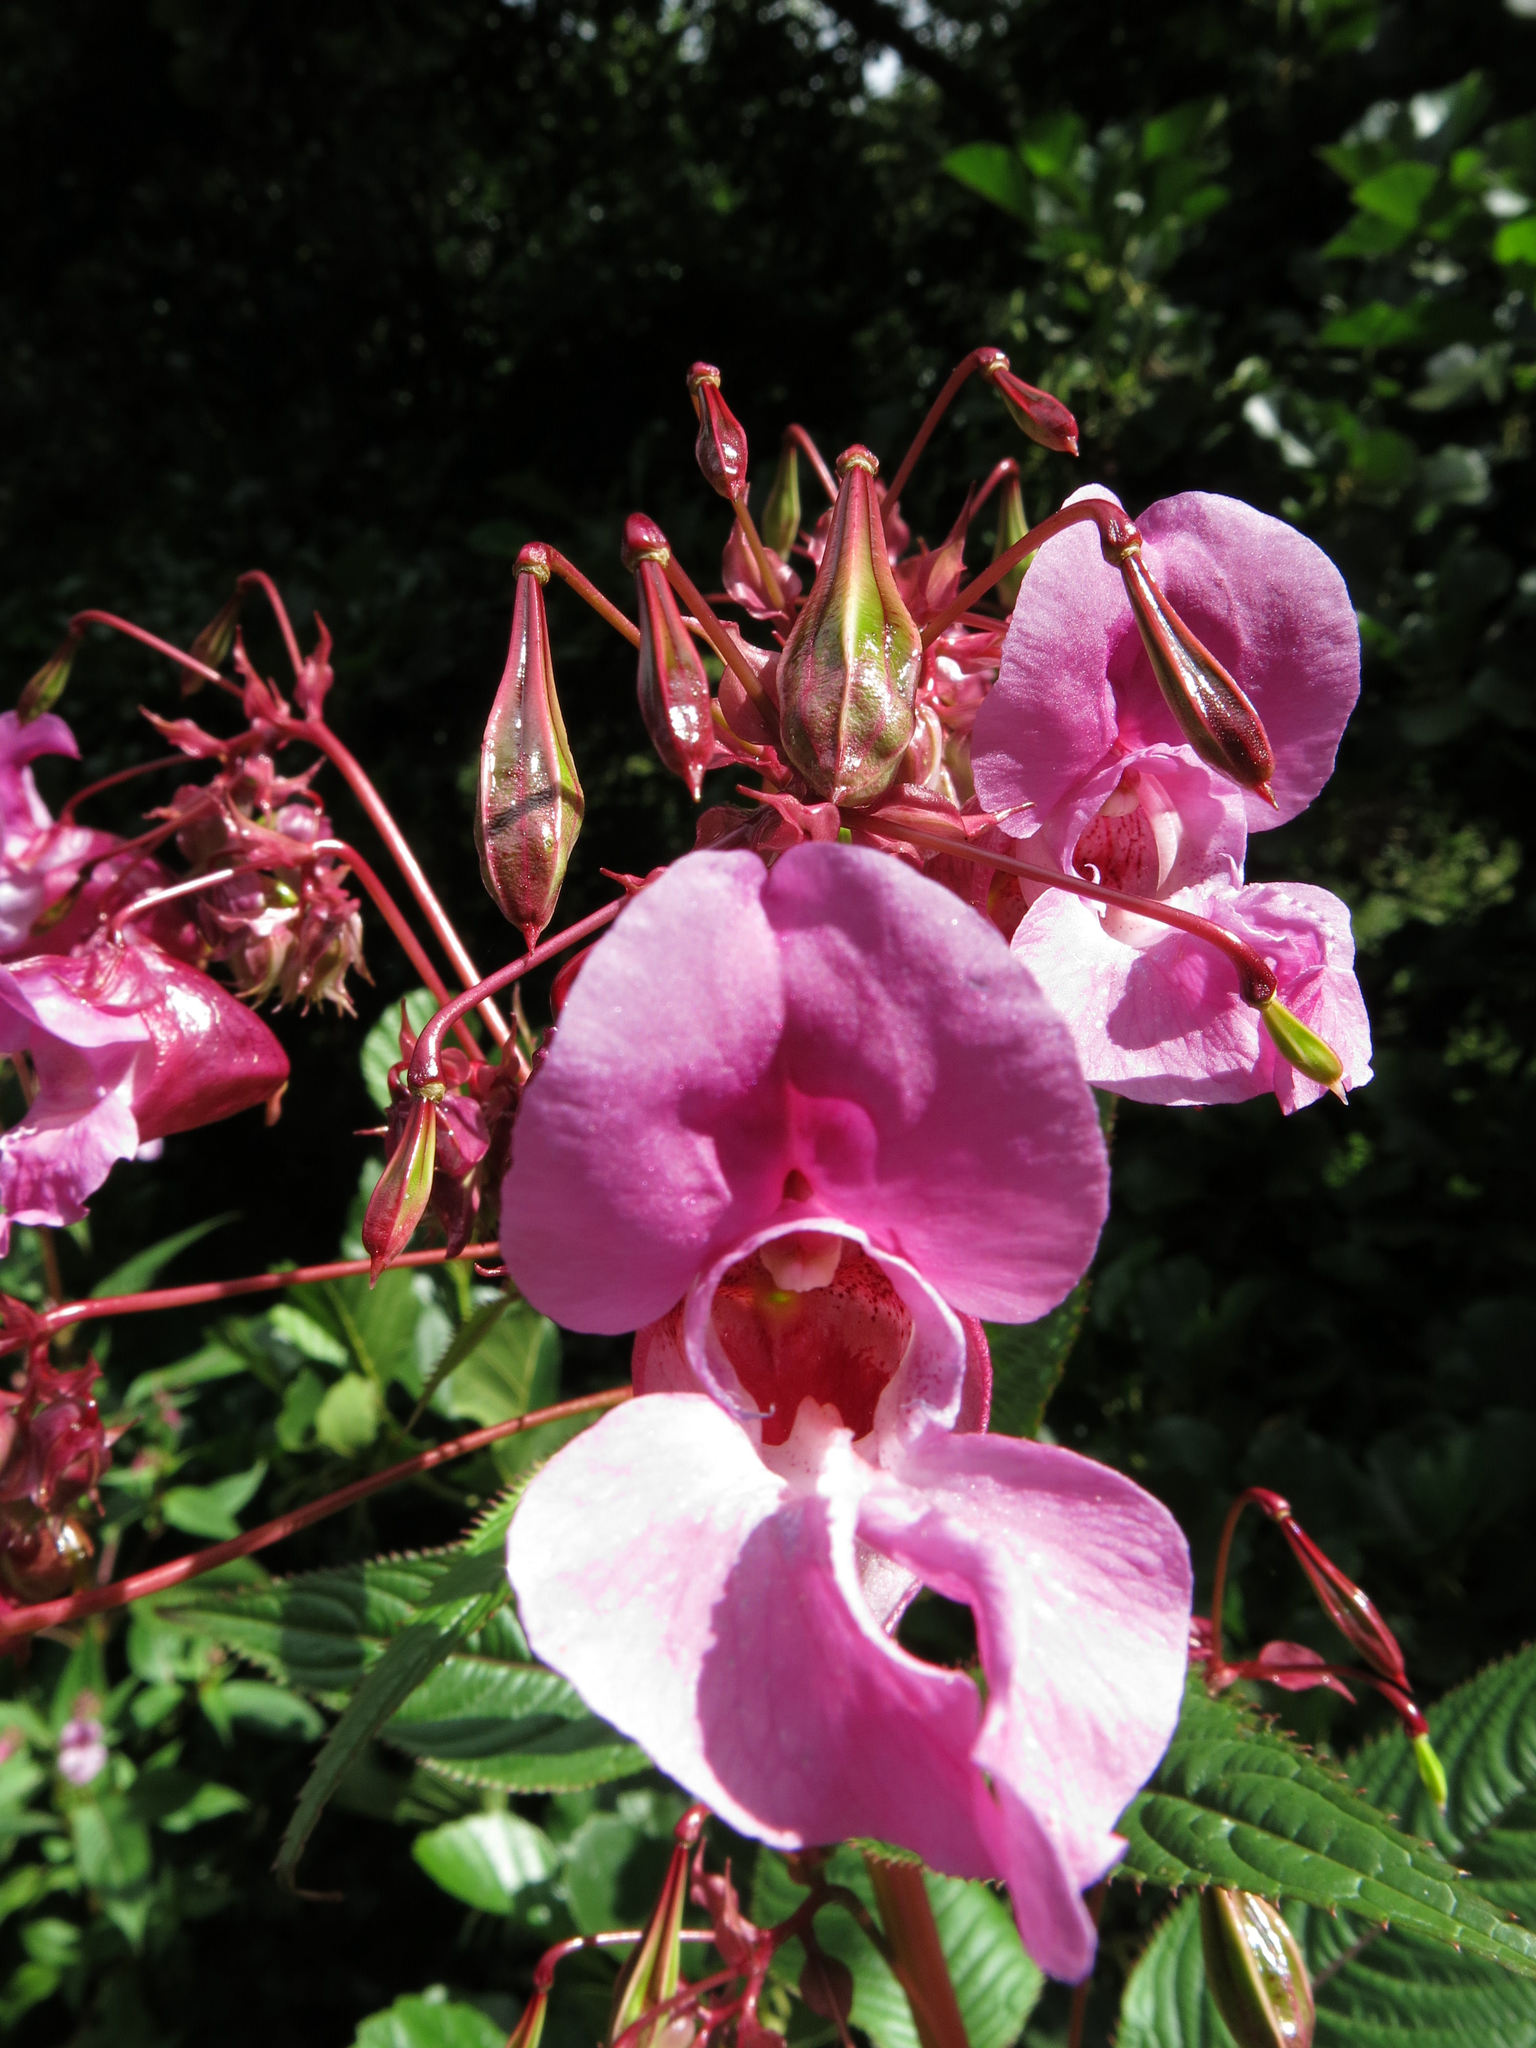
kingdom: Plantae
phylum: Tracheophyta
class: Magnoliopsida
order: Ericales
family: Balsaminaceae
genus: Impatiens
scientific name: Impatiens glandulifera
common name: Himalayan balsam
